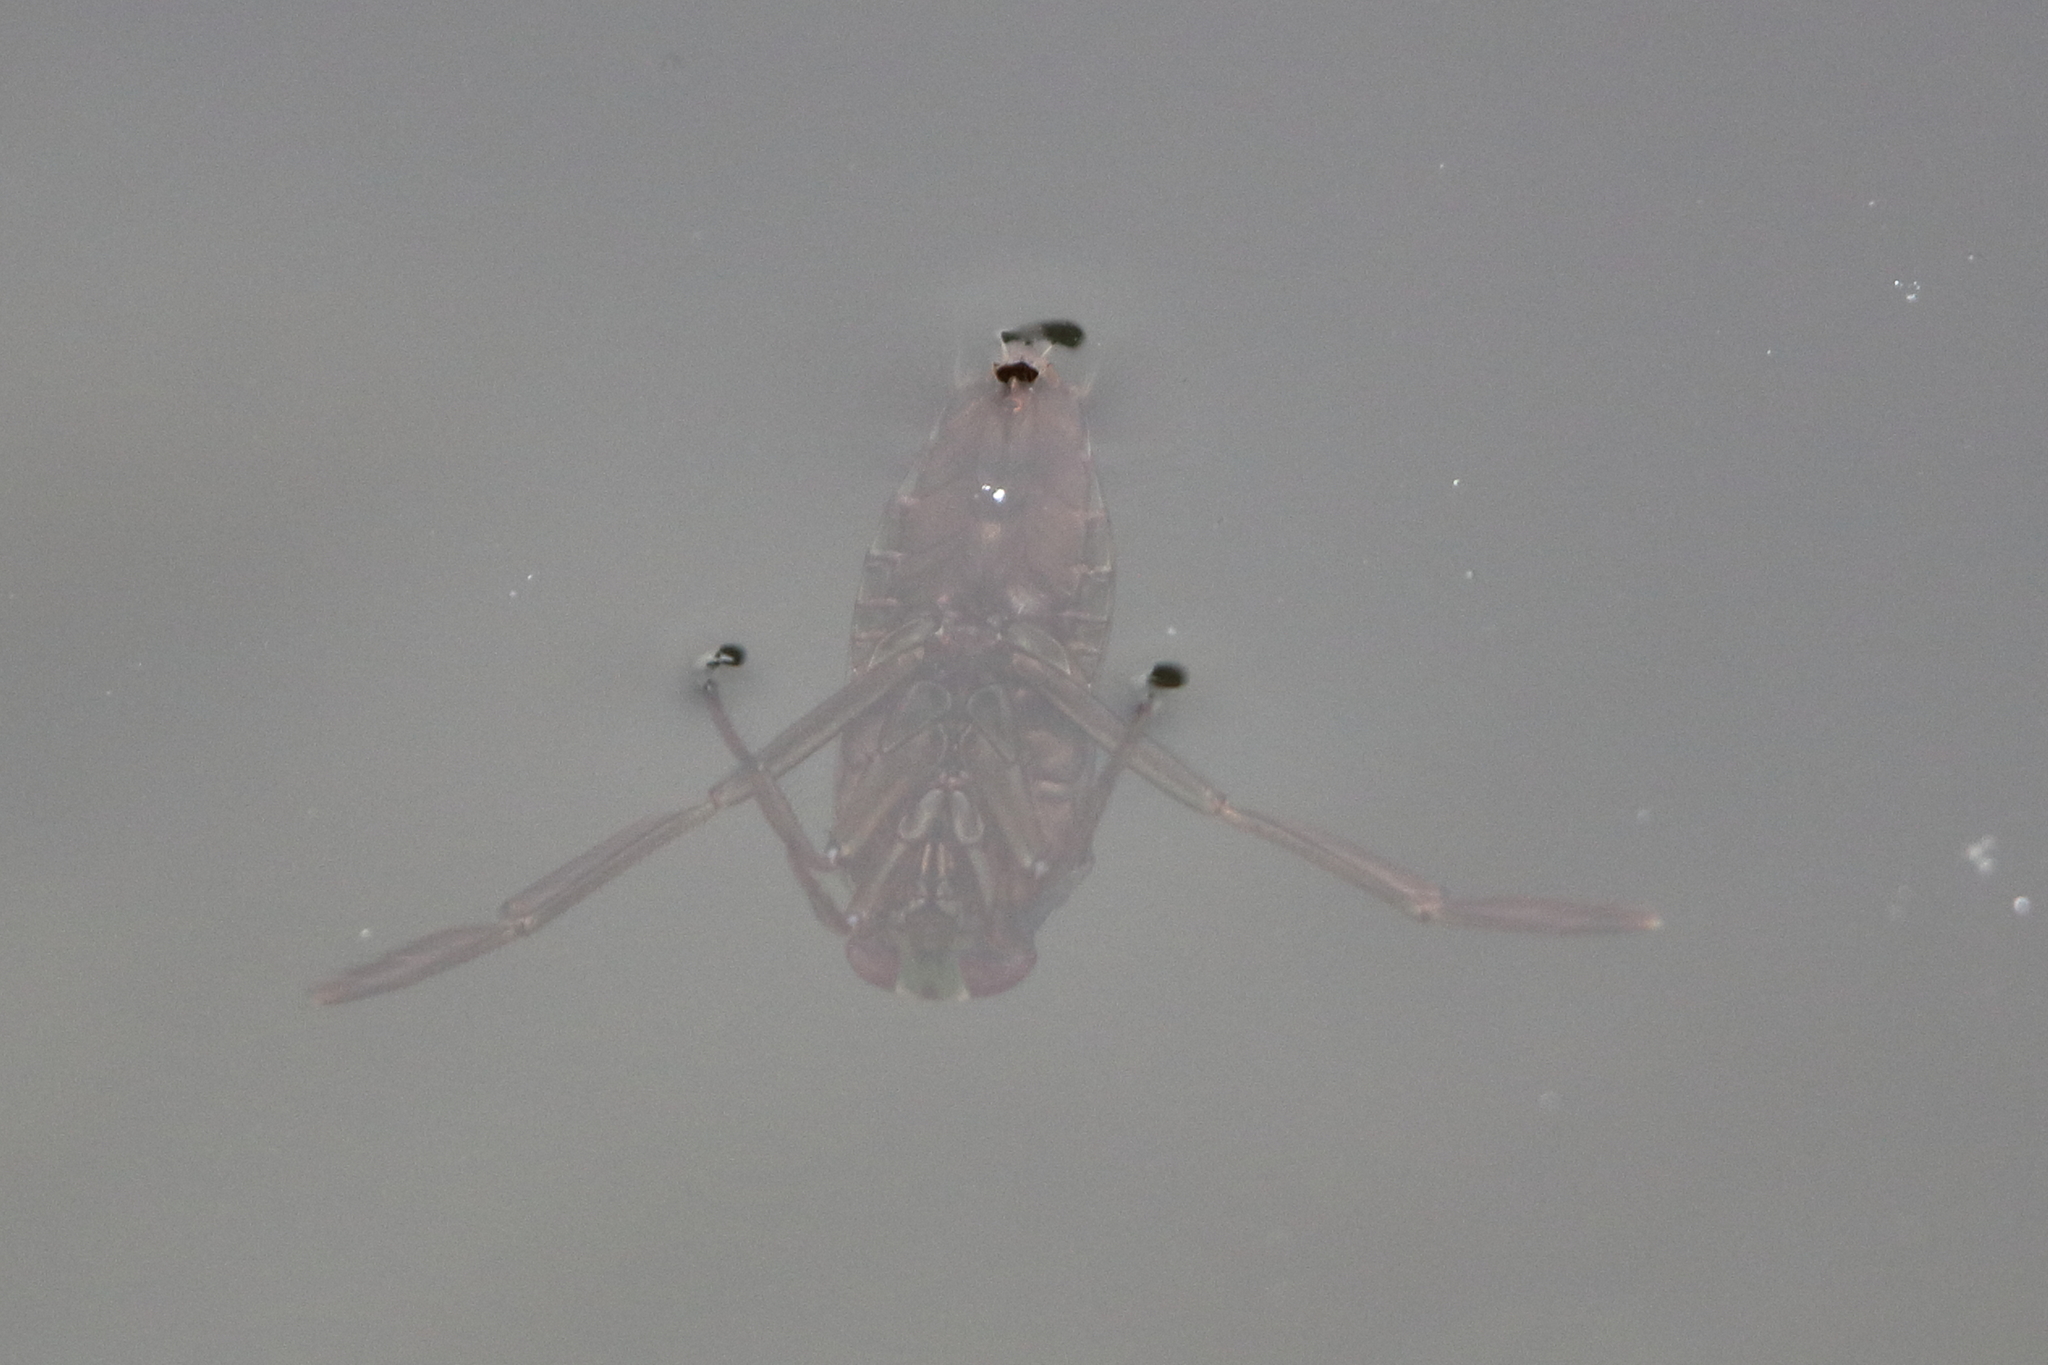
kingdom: Animalia
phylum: Arthropoda
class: Insecta
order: Hemiptera
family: Notonectidae
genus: Notonecta
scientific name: Notonecta
